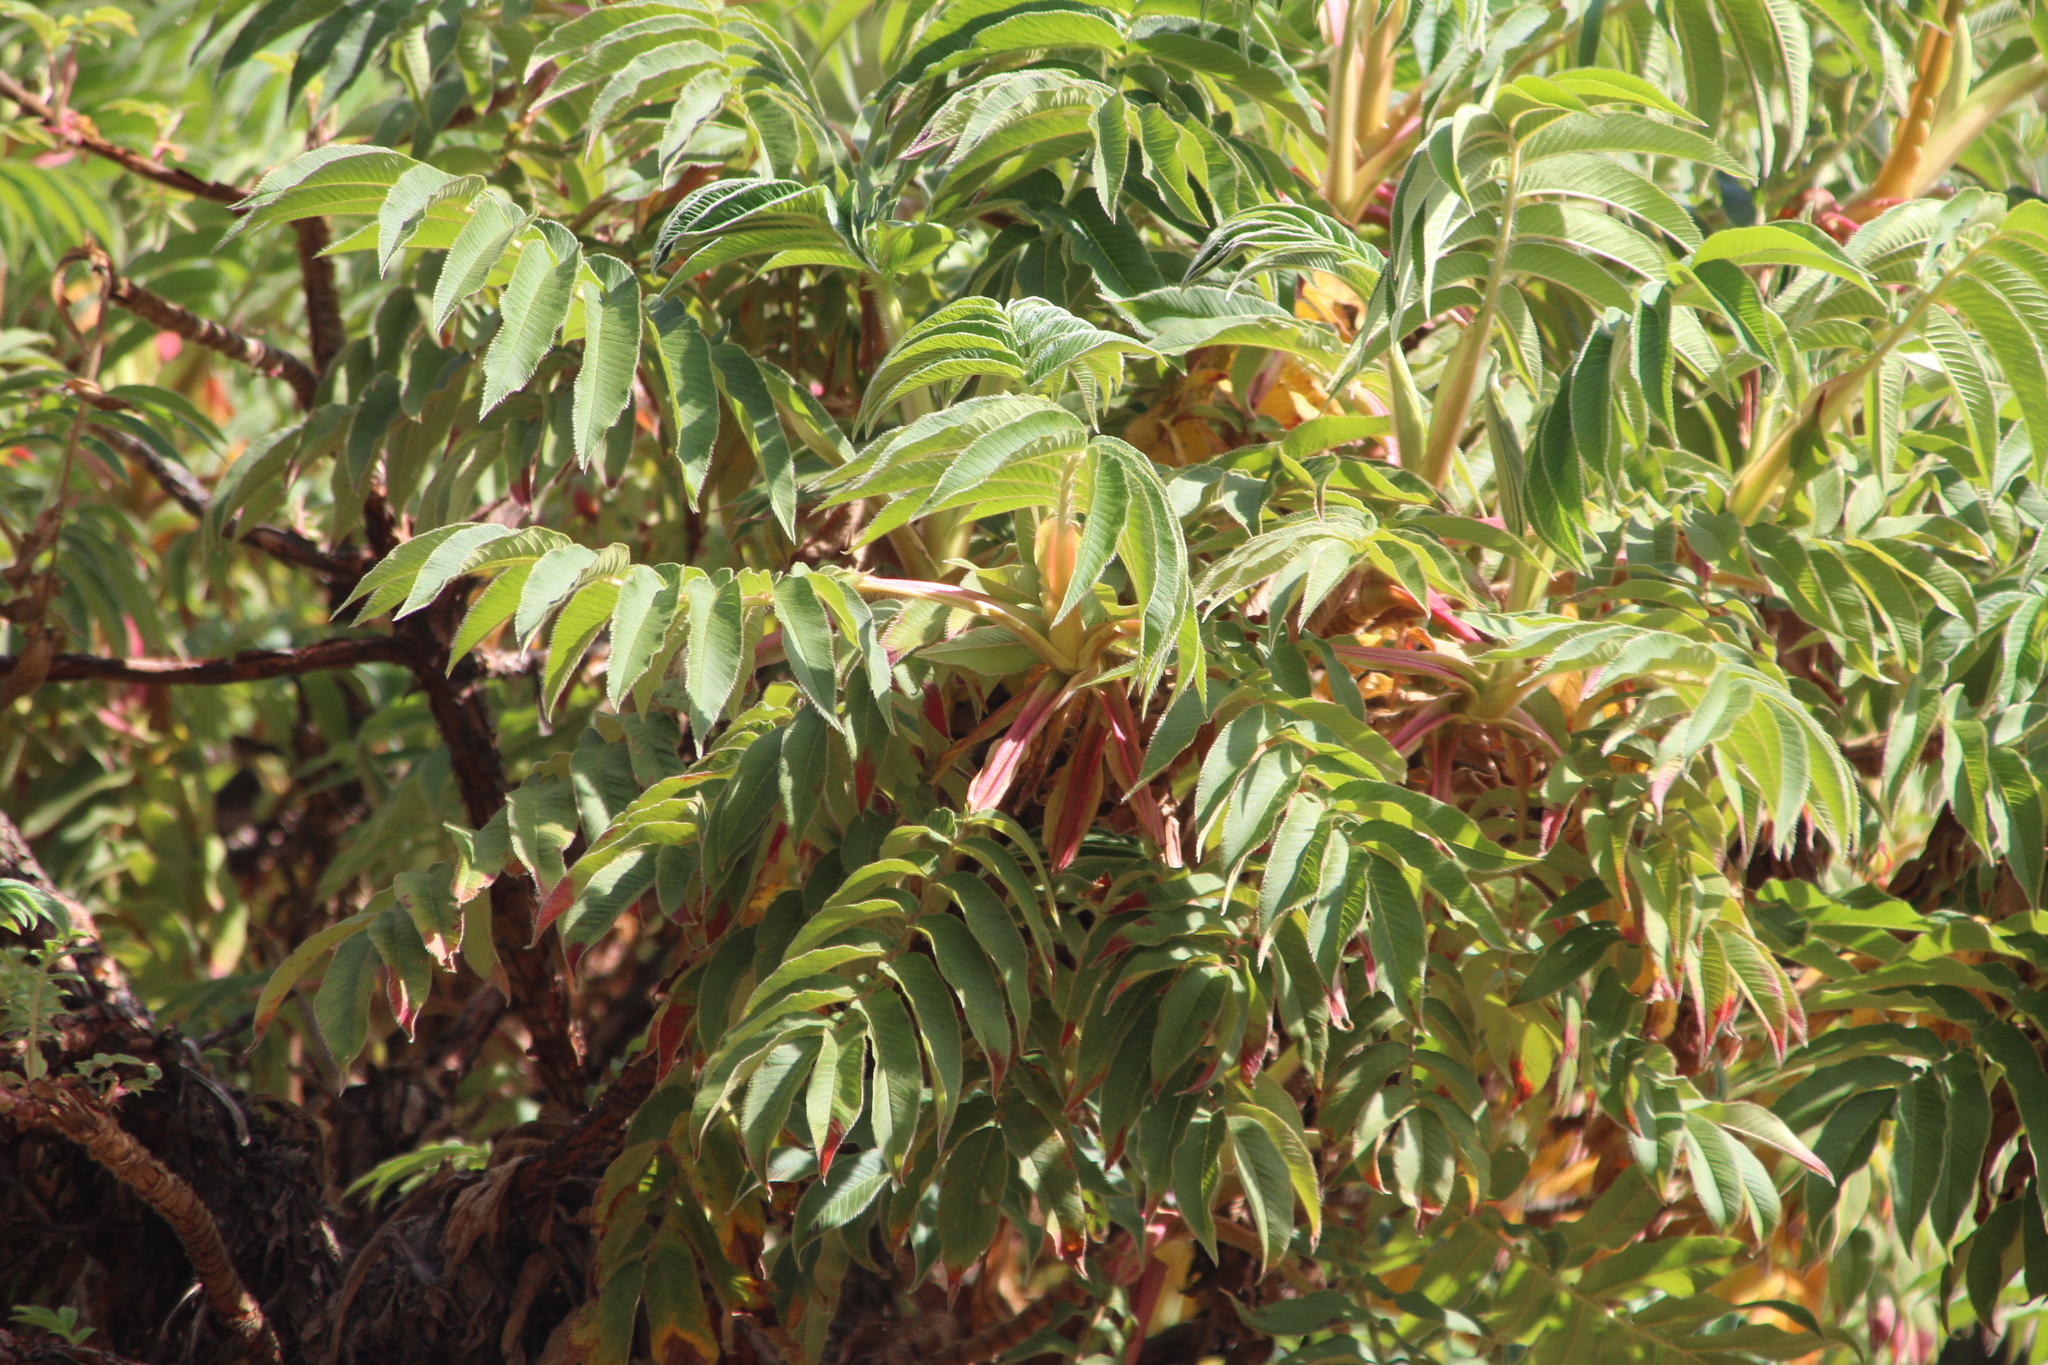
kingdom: Plantae
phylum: Tracheophyta
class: Magnoliopsida
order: Rosales
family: Rosaceae
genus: Hagenia
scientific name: Hagenia abyssinica
